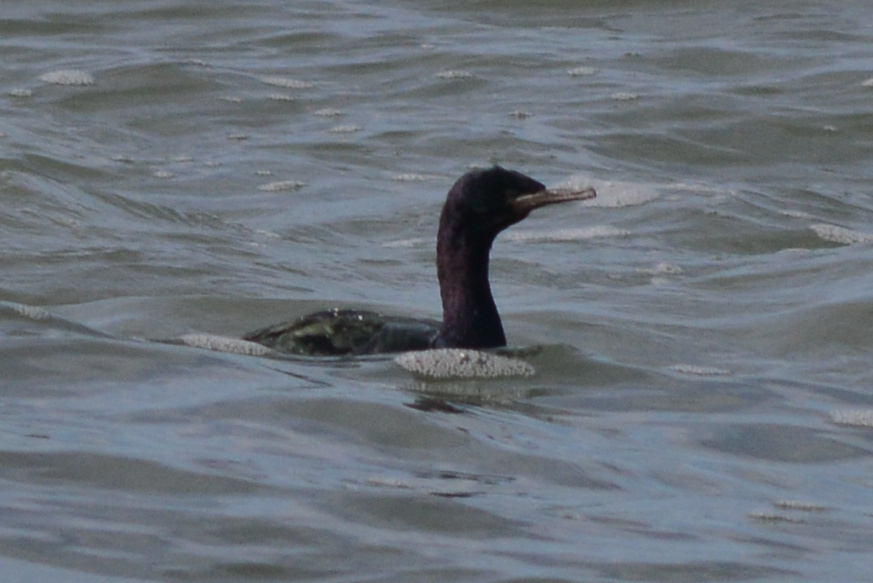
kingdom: Animalia
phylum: Chordata
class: Aves
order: Suliformes
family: Phalacrocoracidae
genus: Phalacrocorax
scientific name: Phalacrocorax pelagicus
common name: Pelagic cormorant
